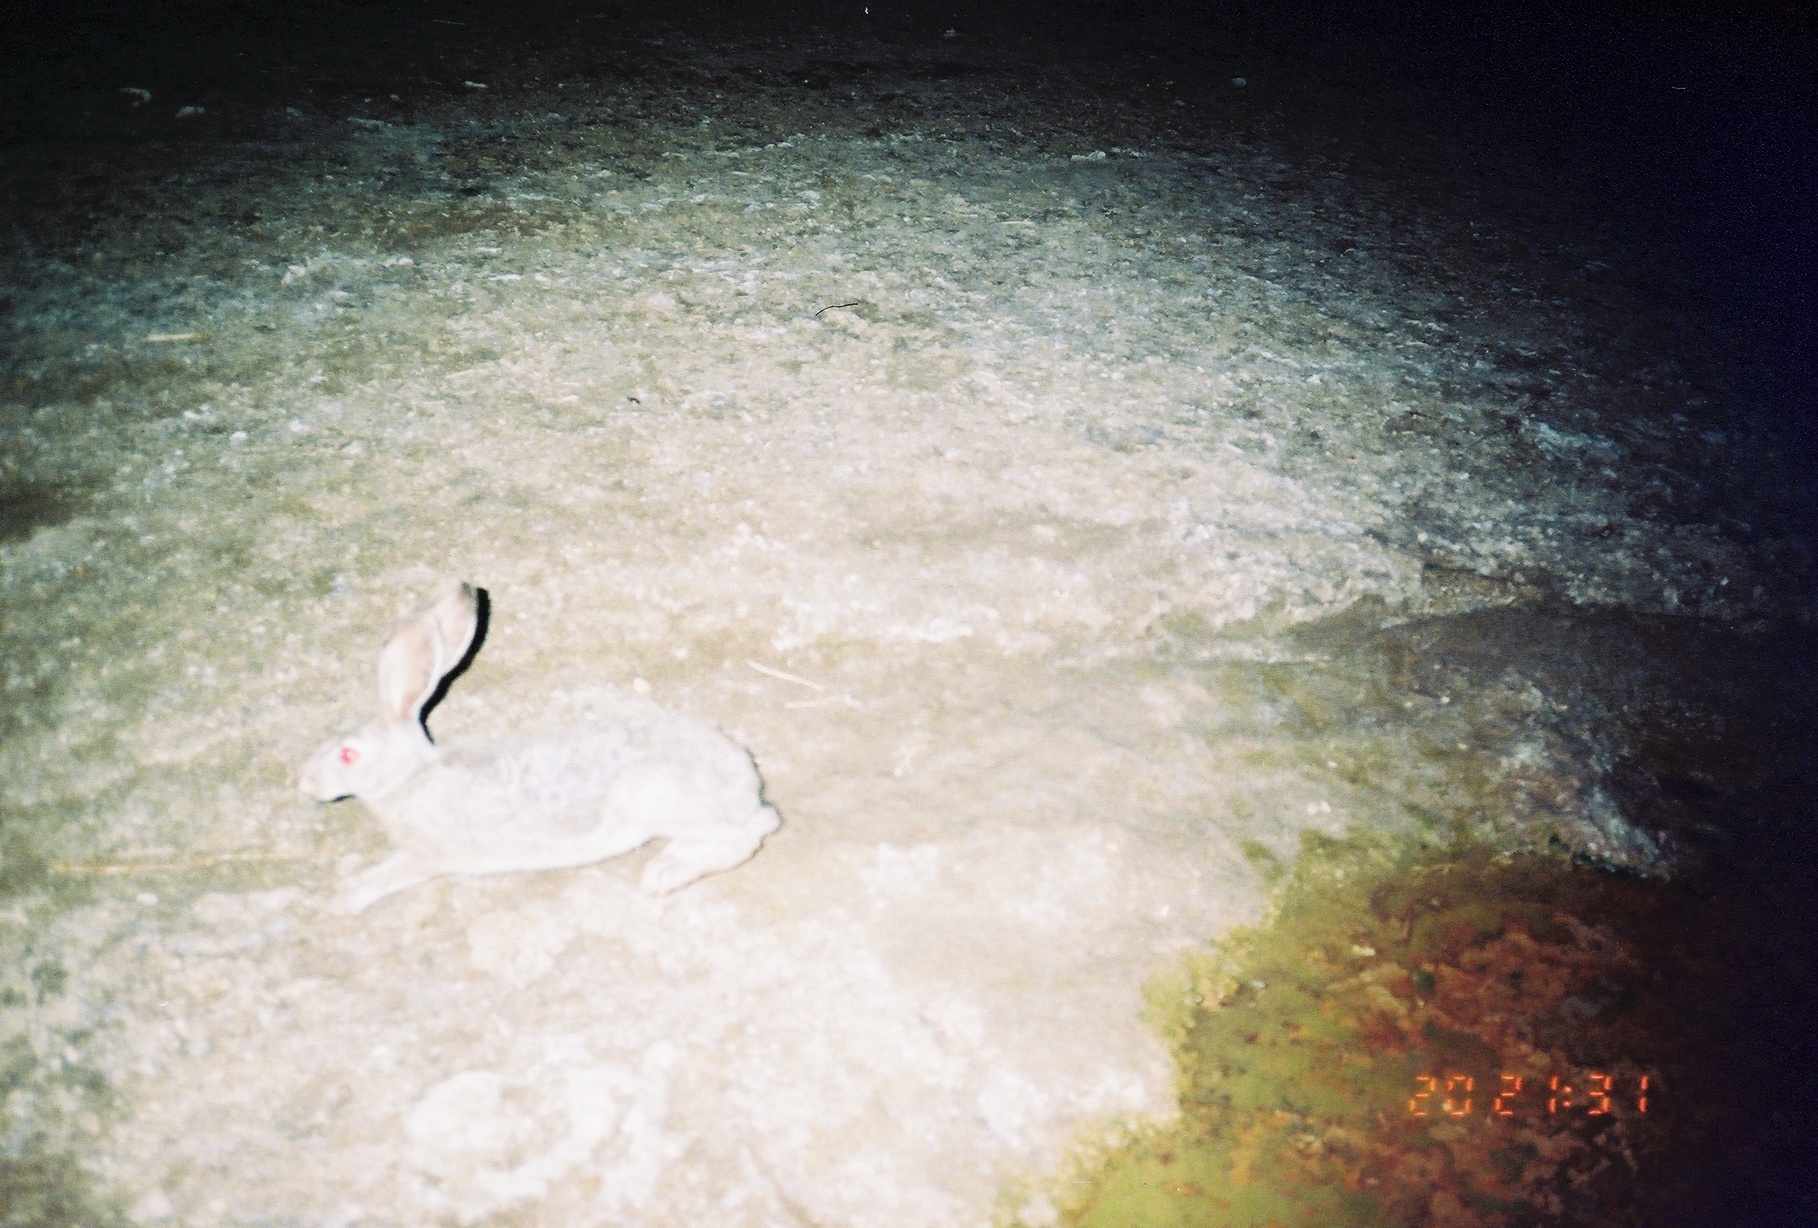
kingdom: Animalia
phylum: Chordata
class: Mammalia
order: Lagomorpha
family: Leporidae
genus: Lepus
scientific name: Lepus californicus
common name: Black-tailed jackrabbit
